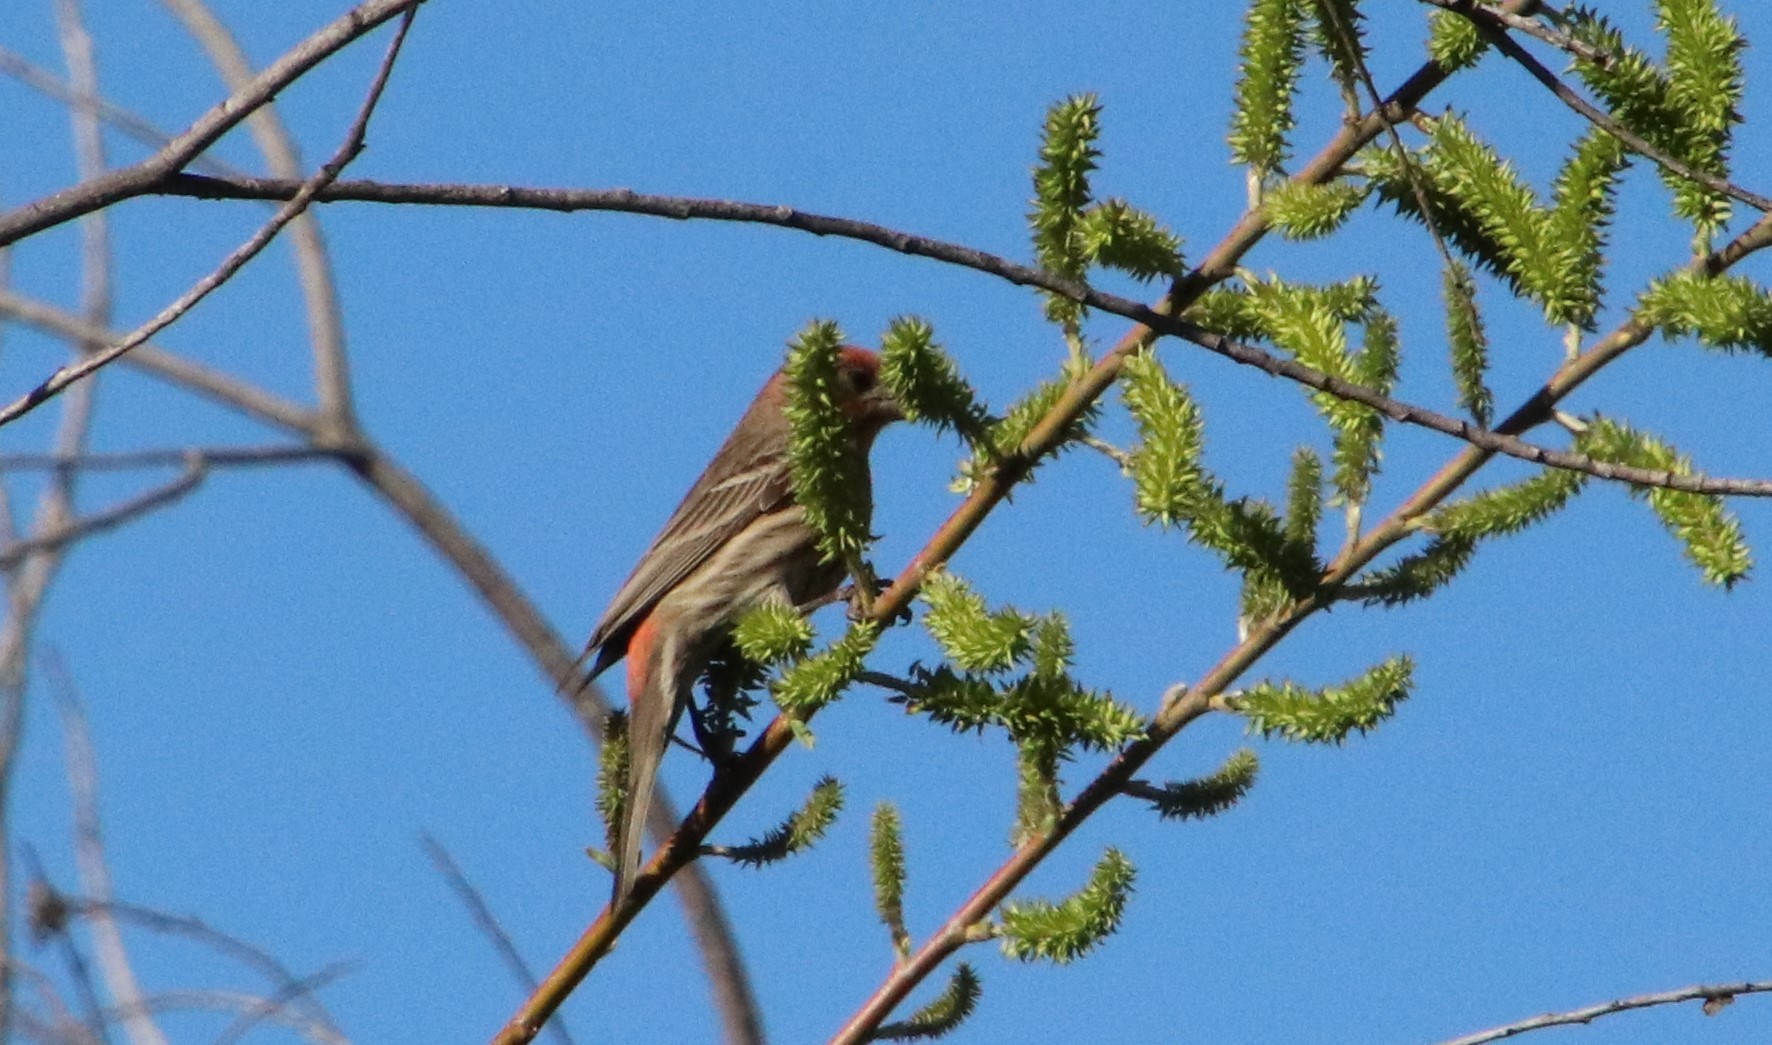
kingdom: Animalia
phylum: Chordata
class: Aves
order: Passeriformes
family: Fringillidae
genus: Haemorhous
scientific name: Haemorhous mexicanus
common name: House finch
